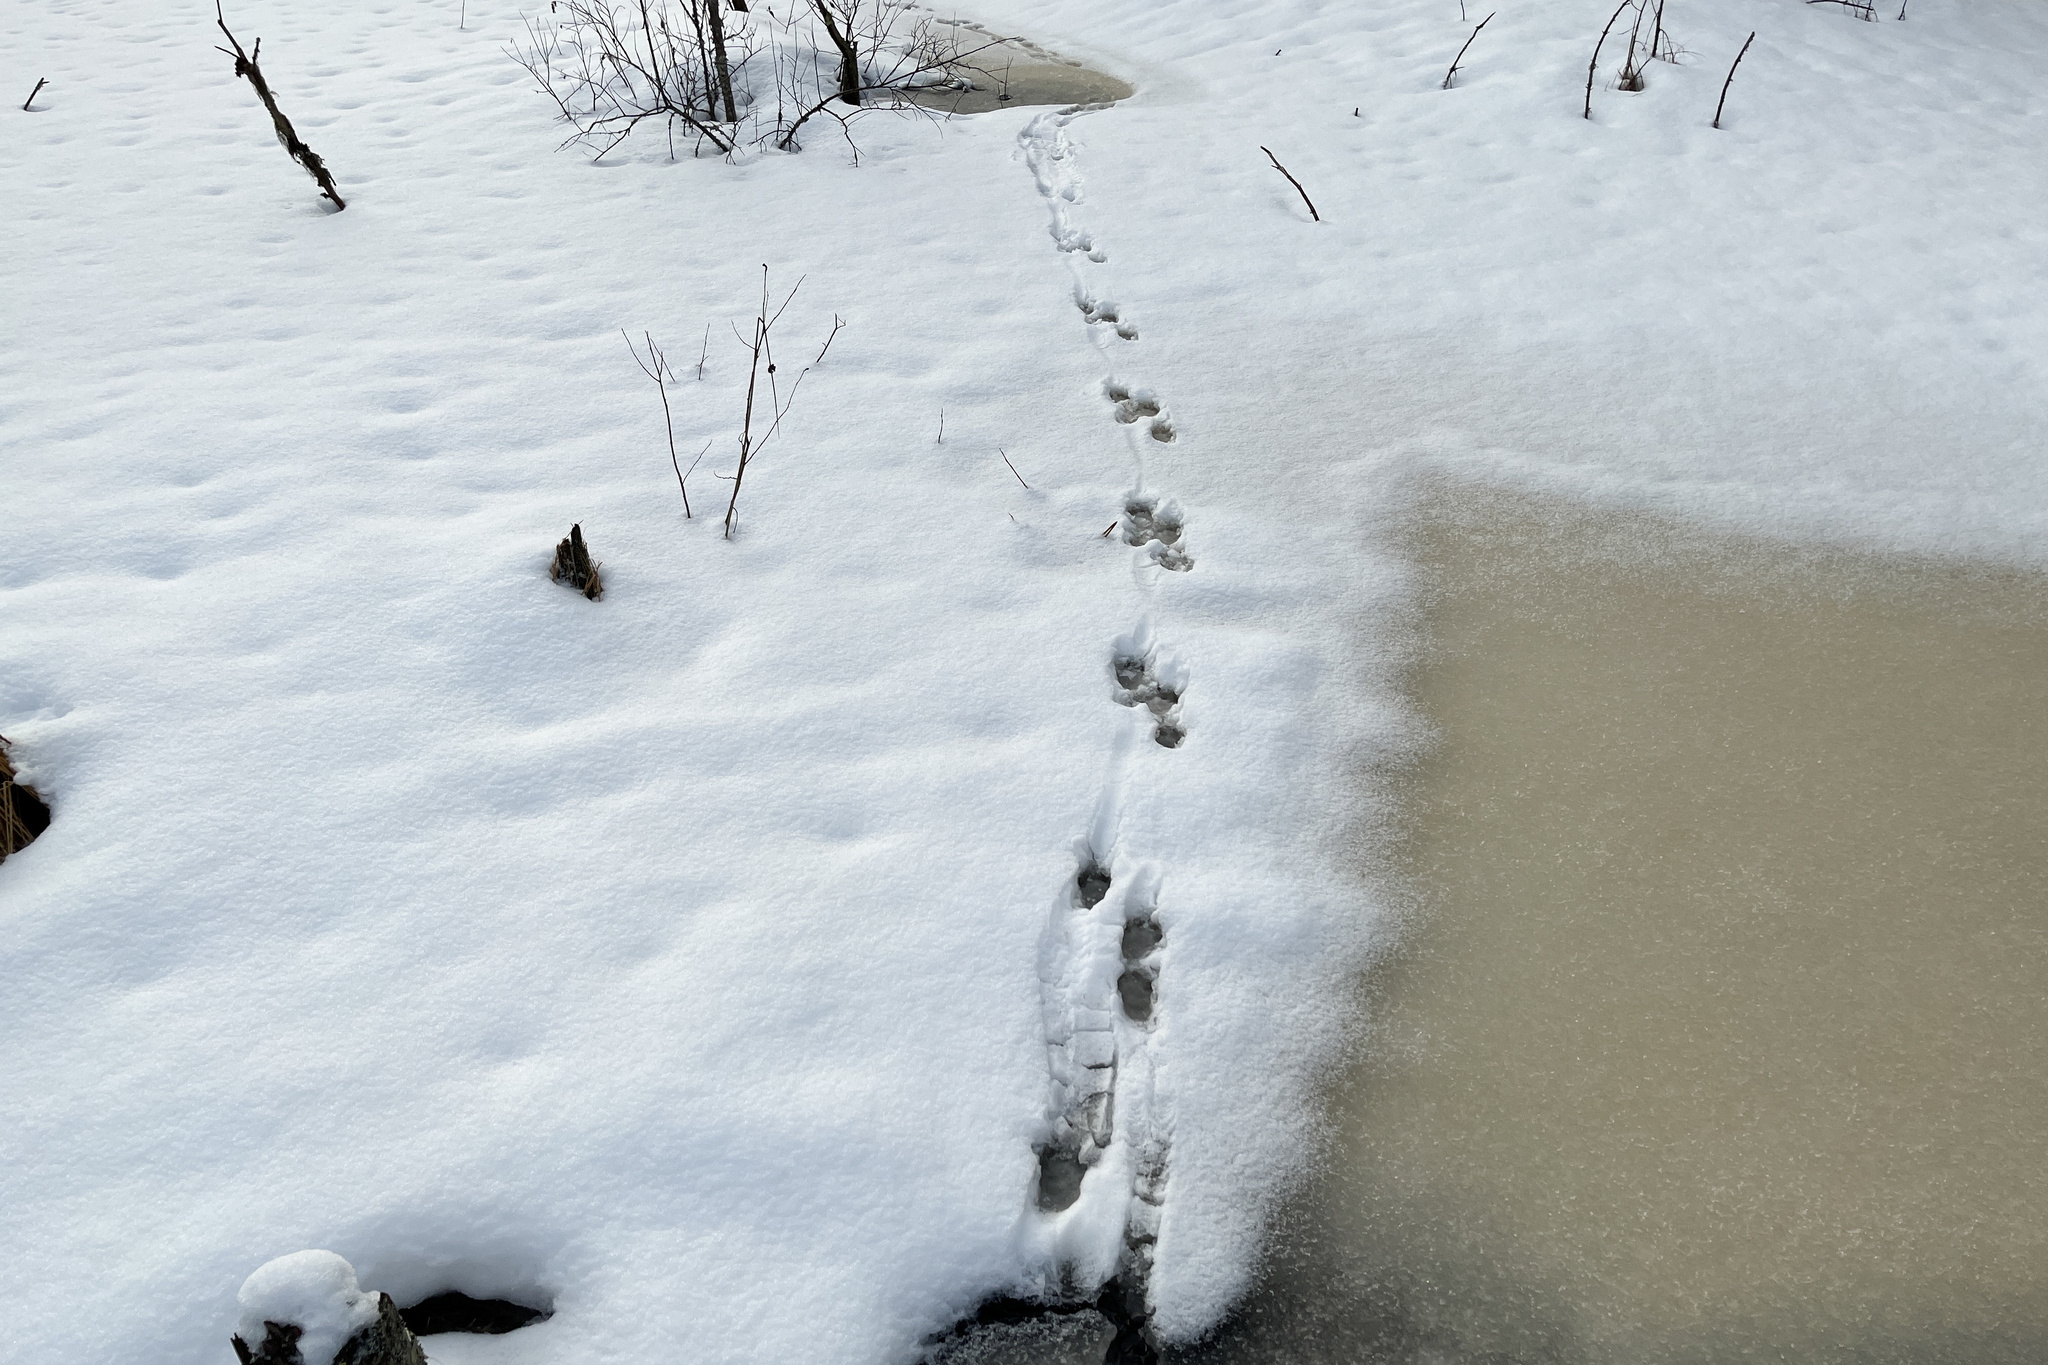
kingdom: Animalia
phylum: Chordata
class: Mammalia
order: Carnivora
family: Mustelidae
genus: Lutra
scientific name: Lutra lutra
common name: European otter
